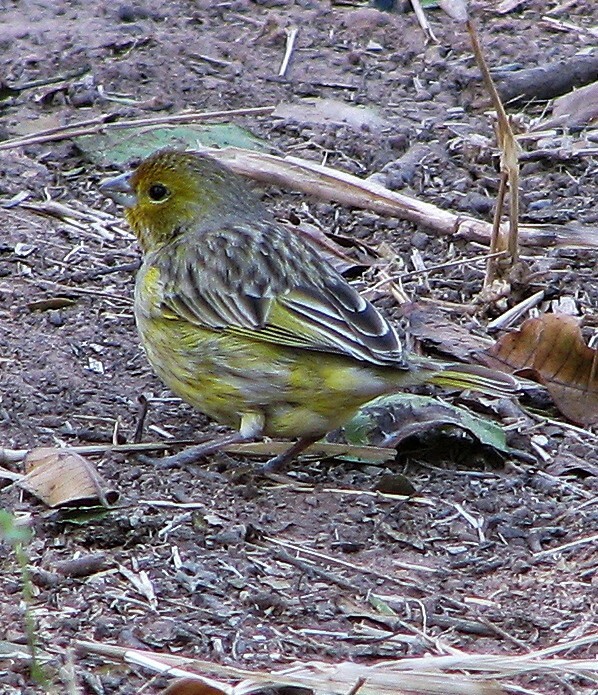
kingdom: Animalia
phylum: Chordata
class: Aves
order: Passeriformes
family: Thraupidae
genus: Sicalis
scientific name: Sicalis flaveola
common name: Saffron finch
